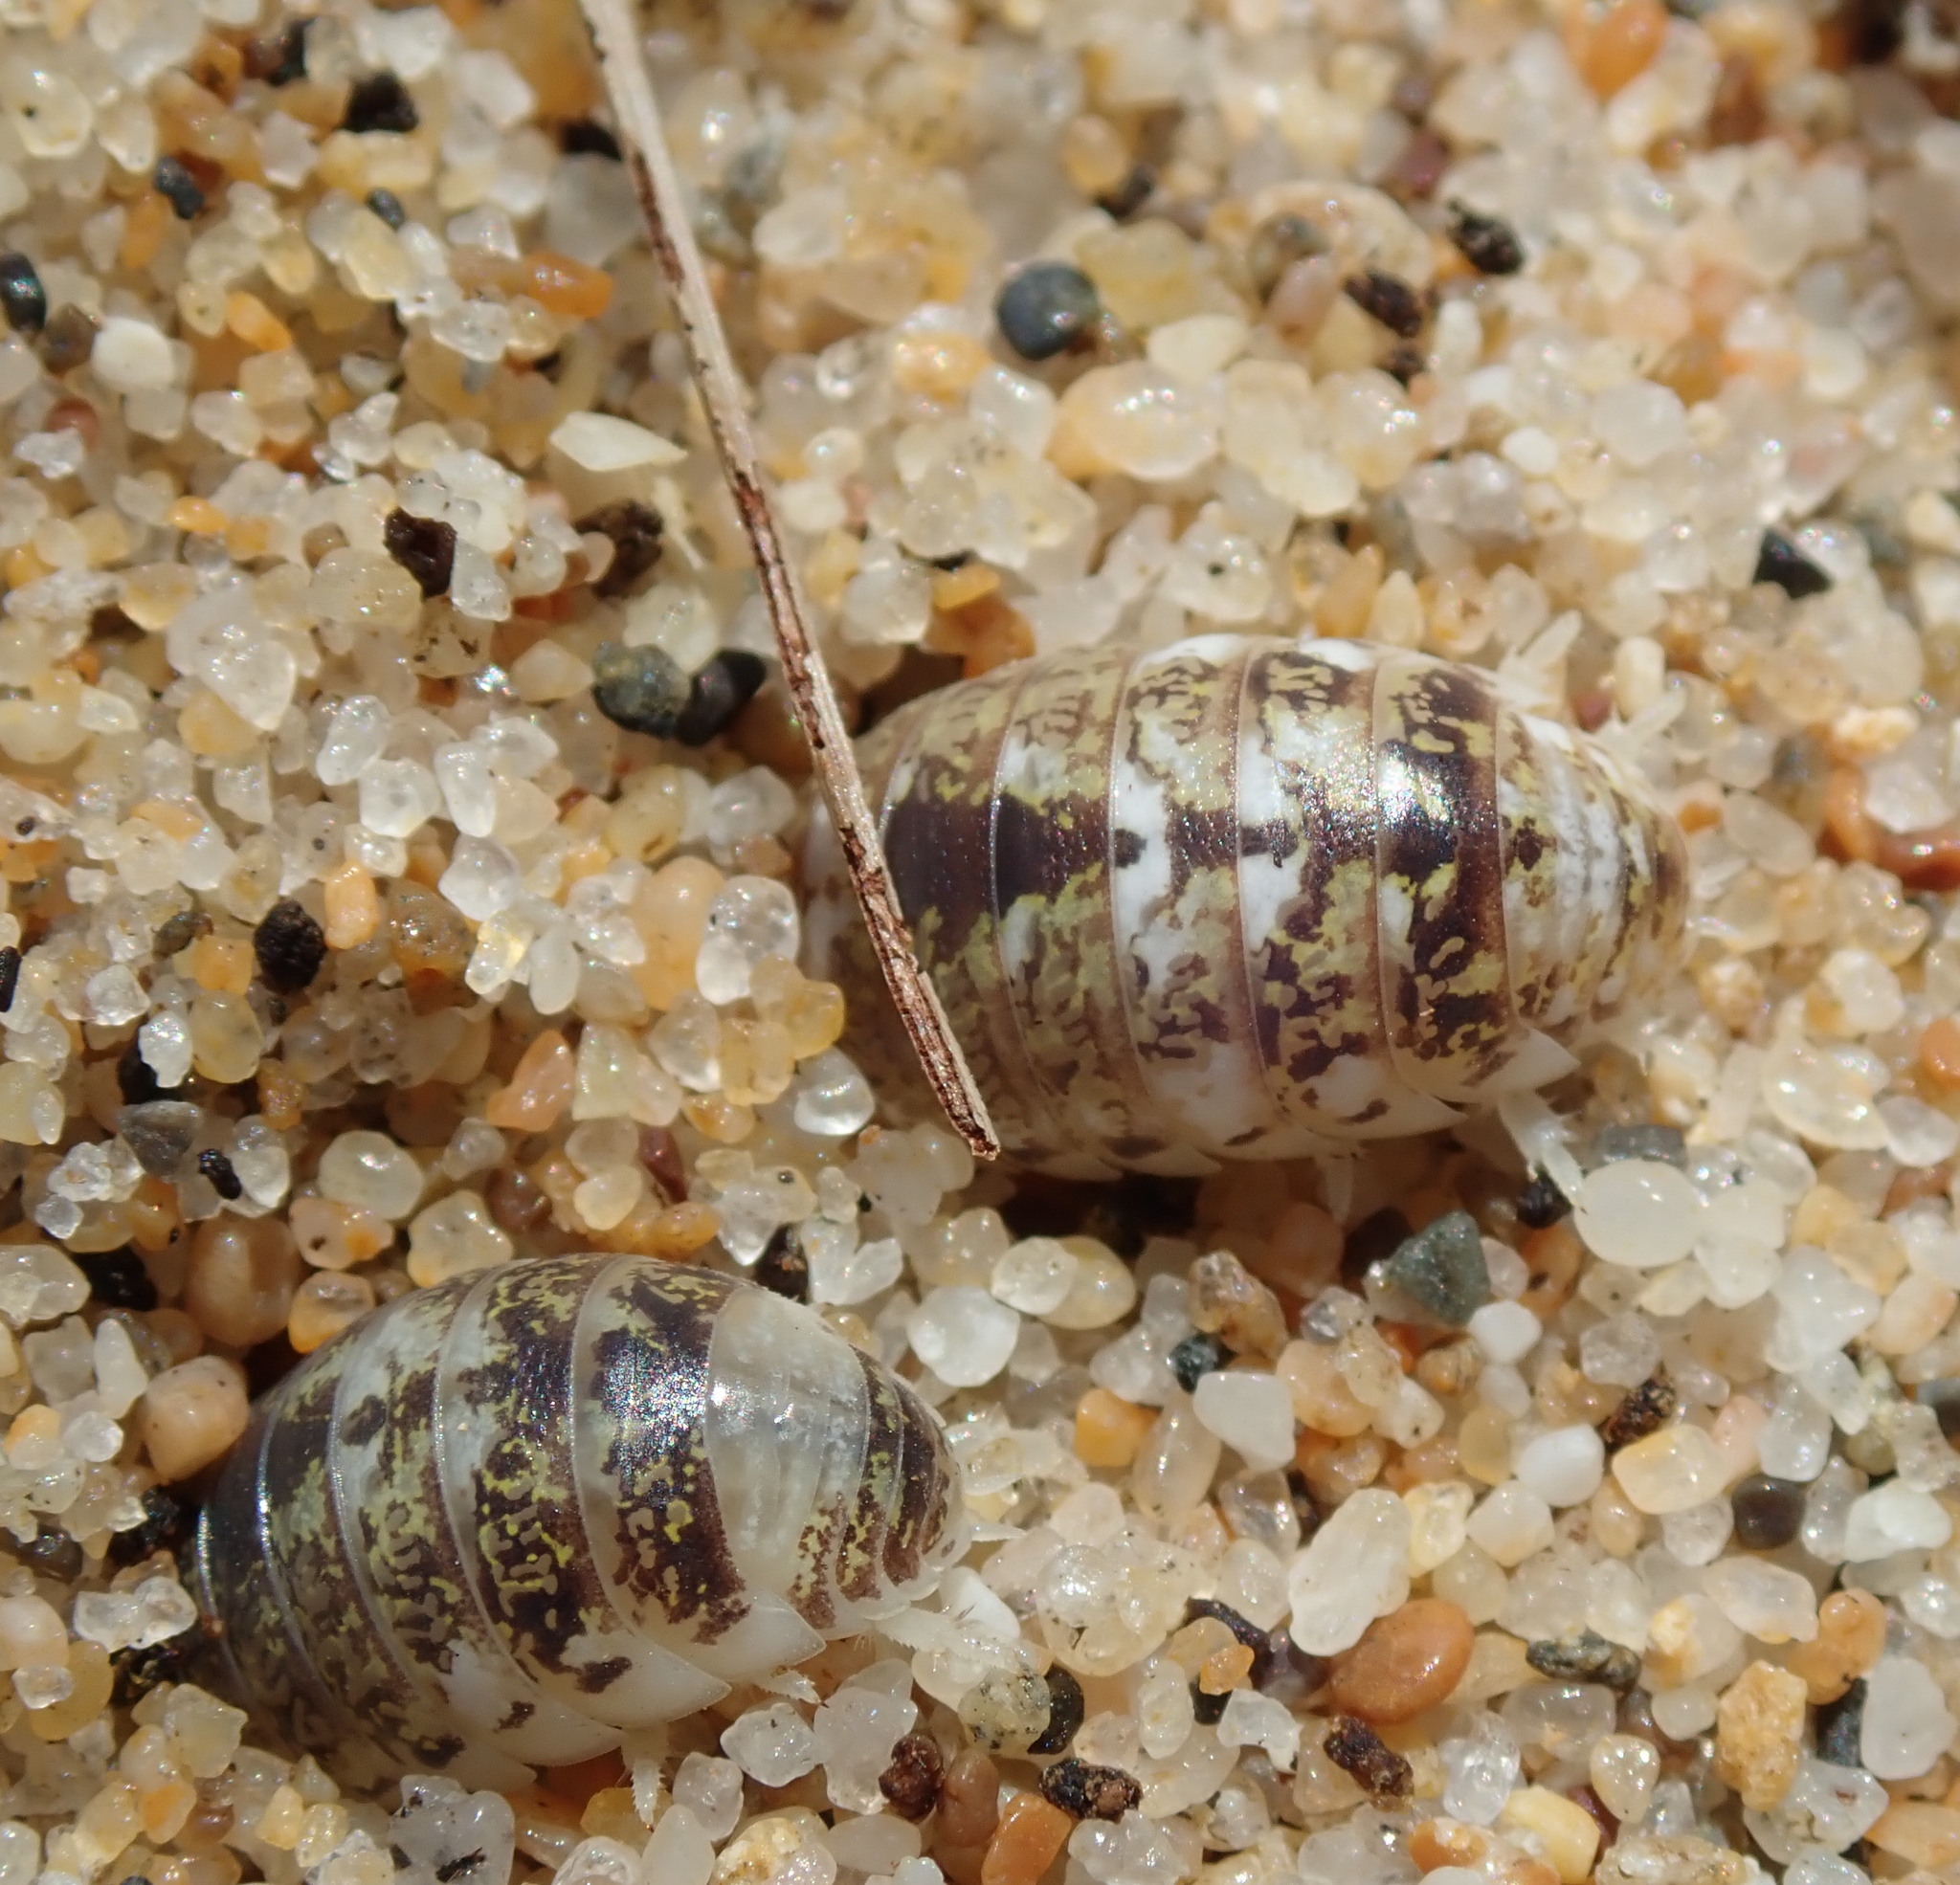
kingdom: Animalia
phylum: Arthropoda
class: Malacostraca
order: Isopoda
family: Alloniscidae
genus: Alloniscus
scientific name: Alloniscus perconvexus
